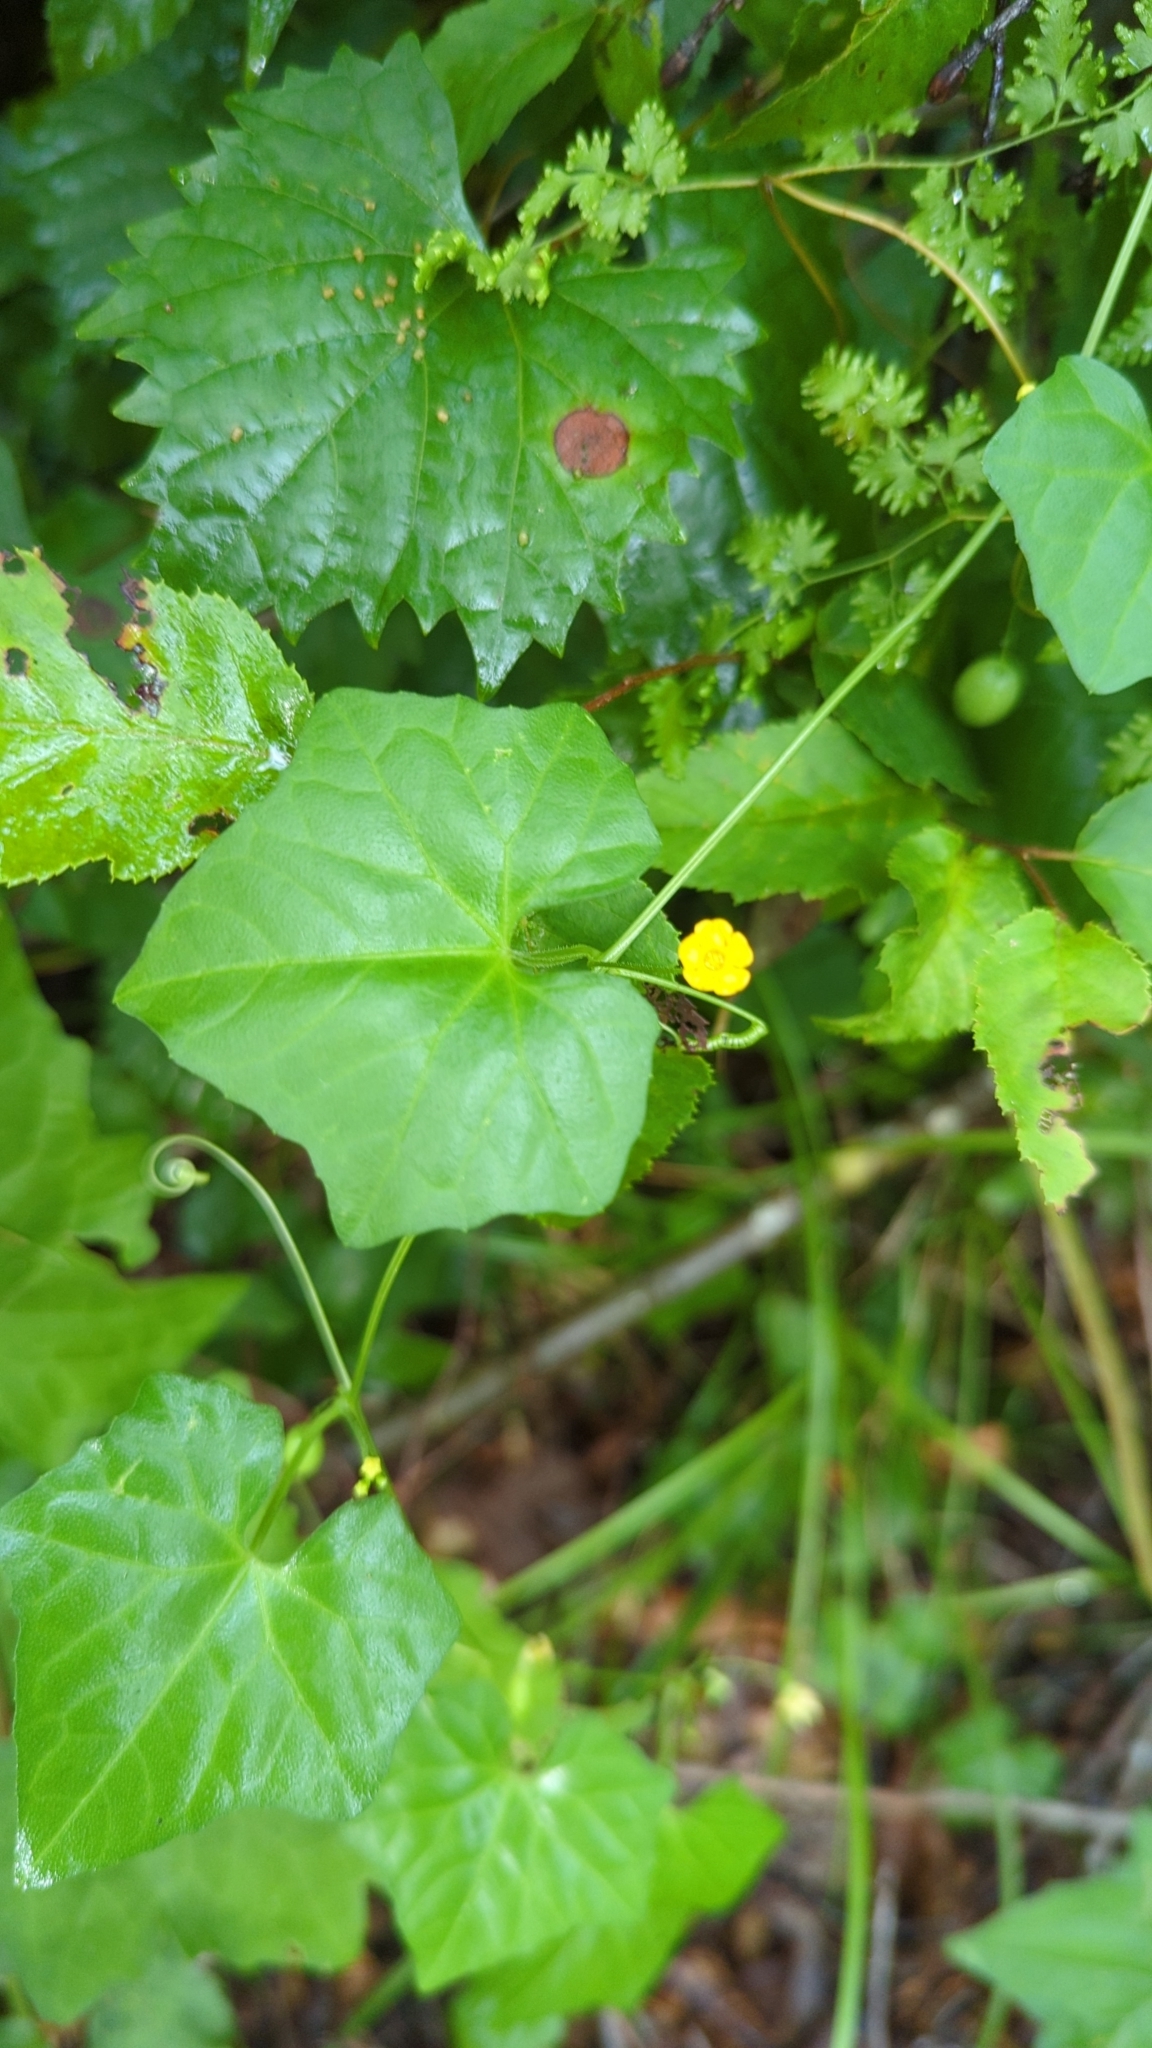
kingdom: Plantae
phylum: Tracheophyta
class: Magnoliopsida
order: Cucurbitales
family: Cucurbitaceae
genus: Melothria
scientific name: Melothria pendula
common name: Creeping-cucumber
